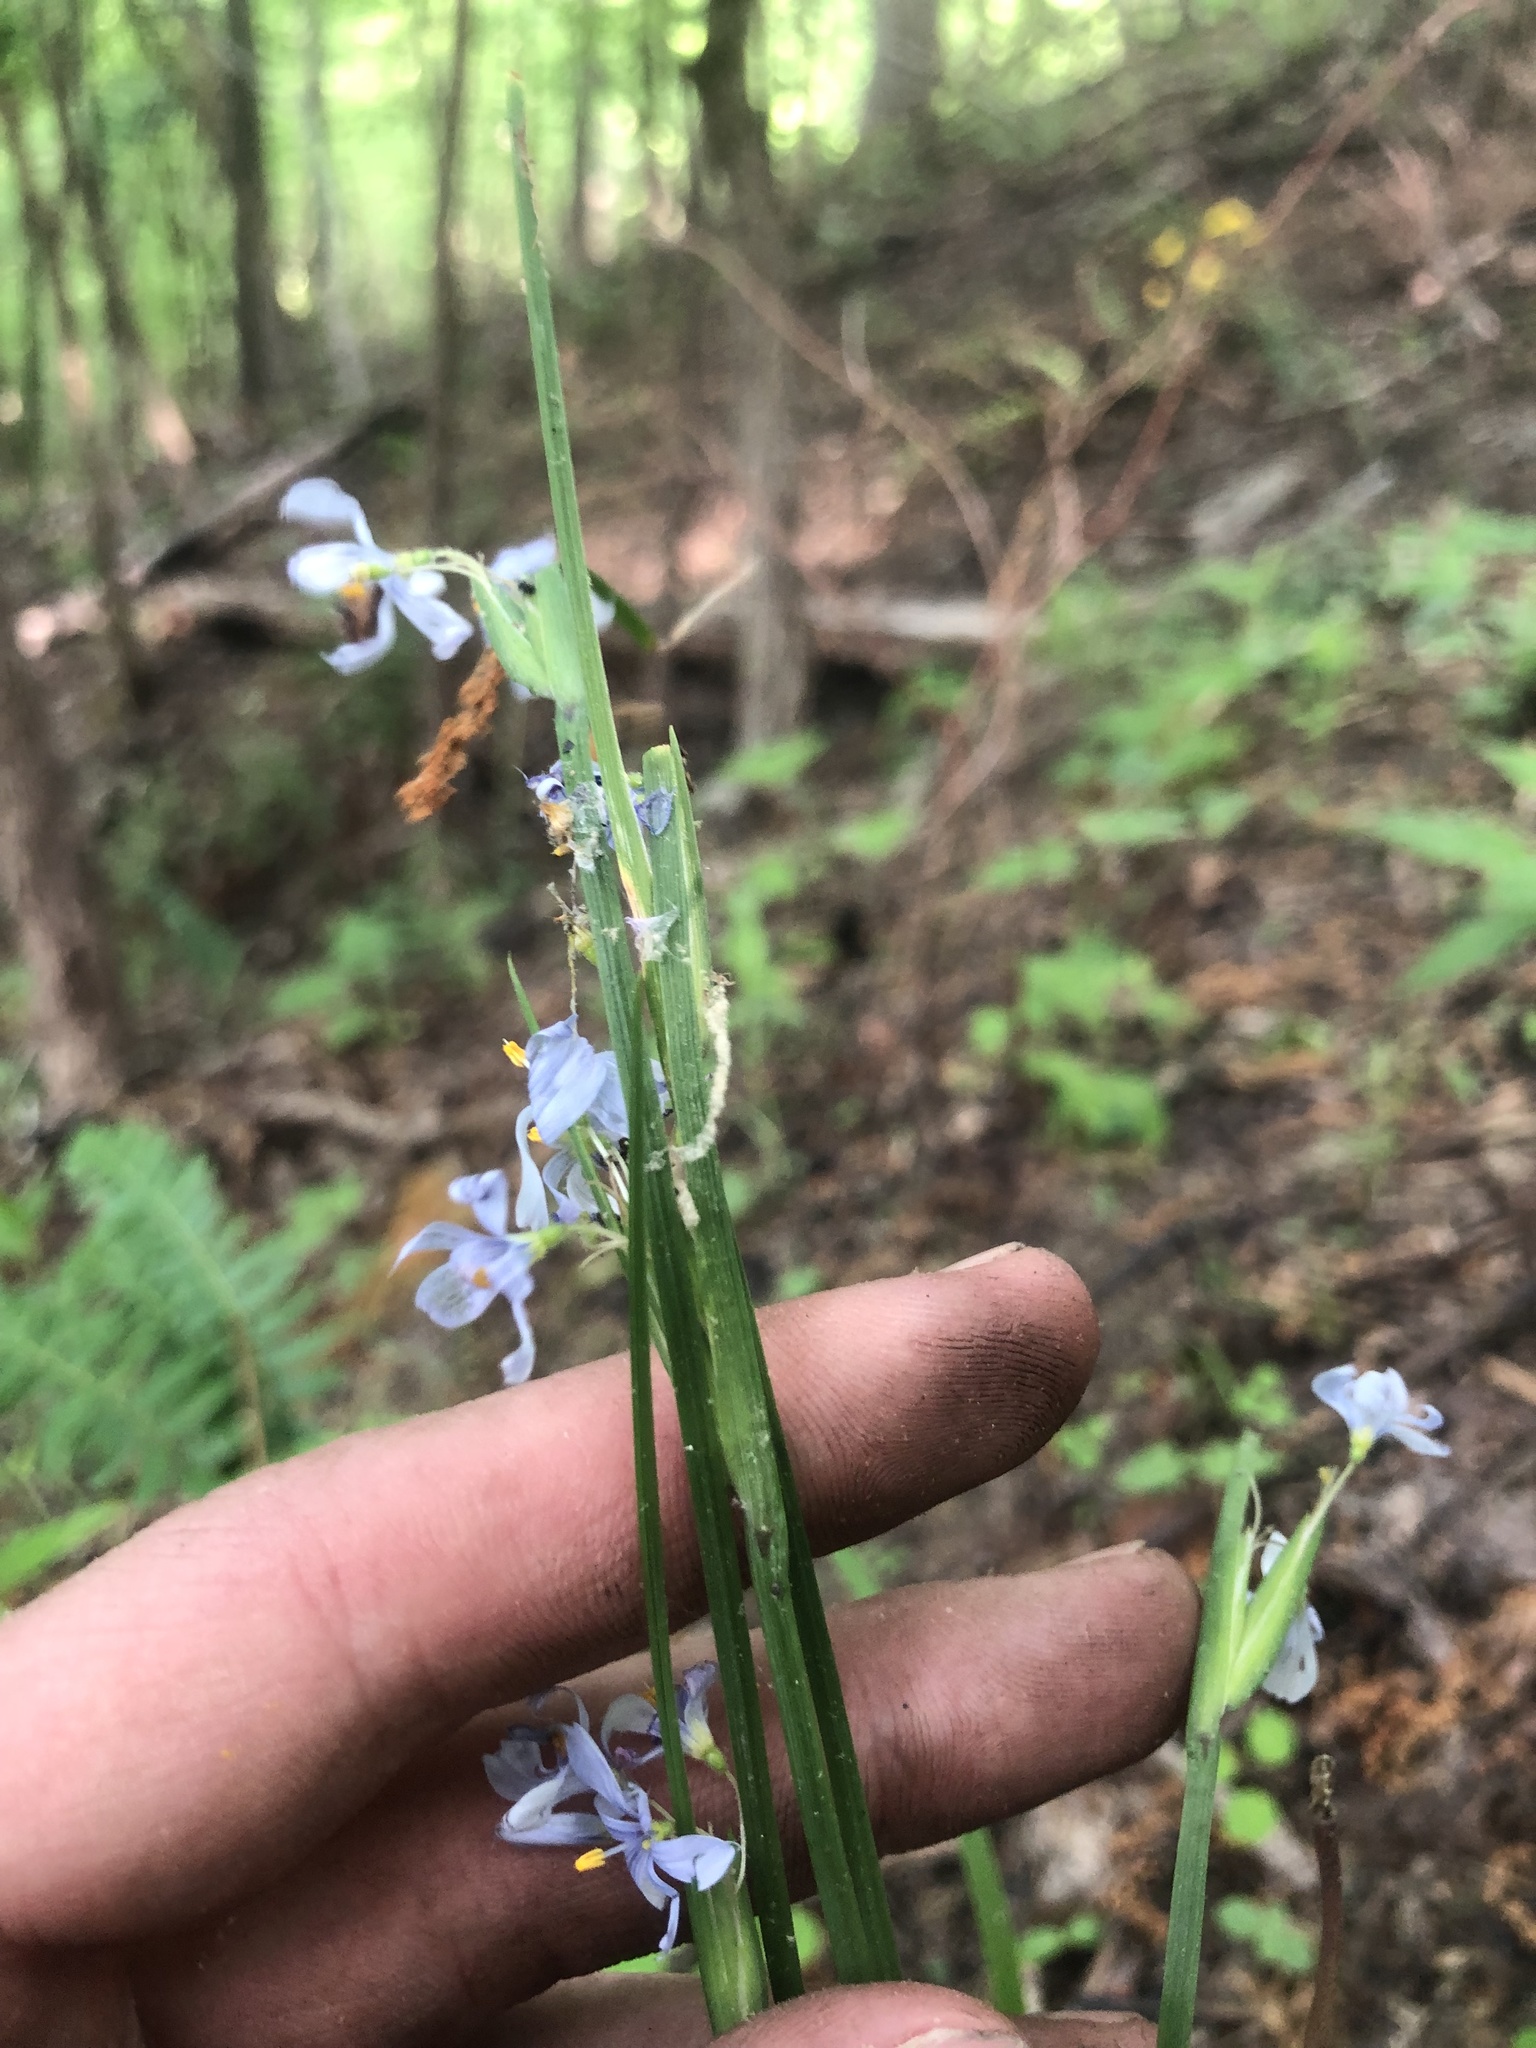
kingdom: Plantae
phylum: Tracheophyta
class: Liliopsida
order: Asparagales
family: Iridaceae
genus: Sisyrinchium
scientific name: Sisyrinchium albidum
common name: Pale blue-eyed-grass
